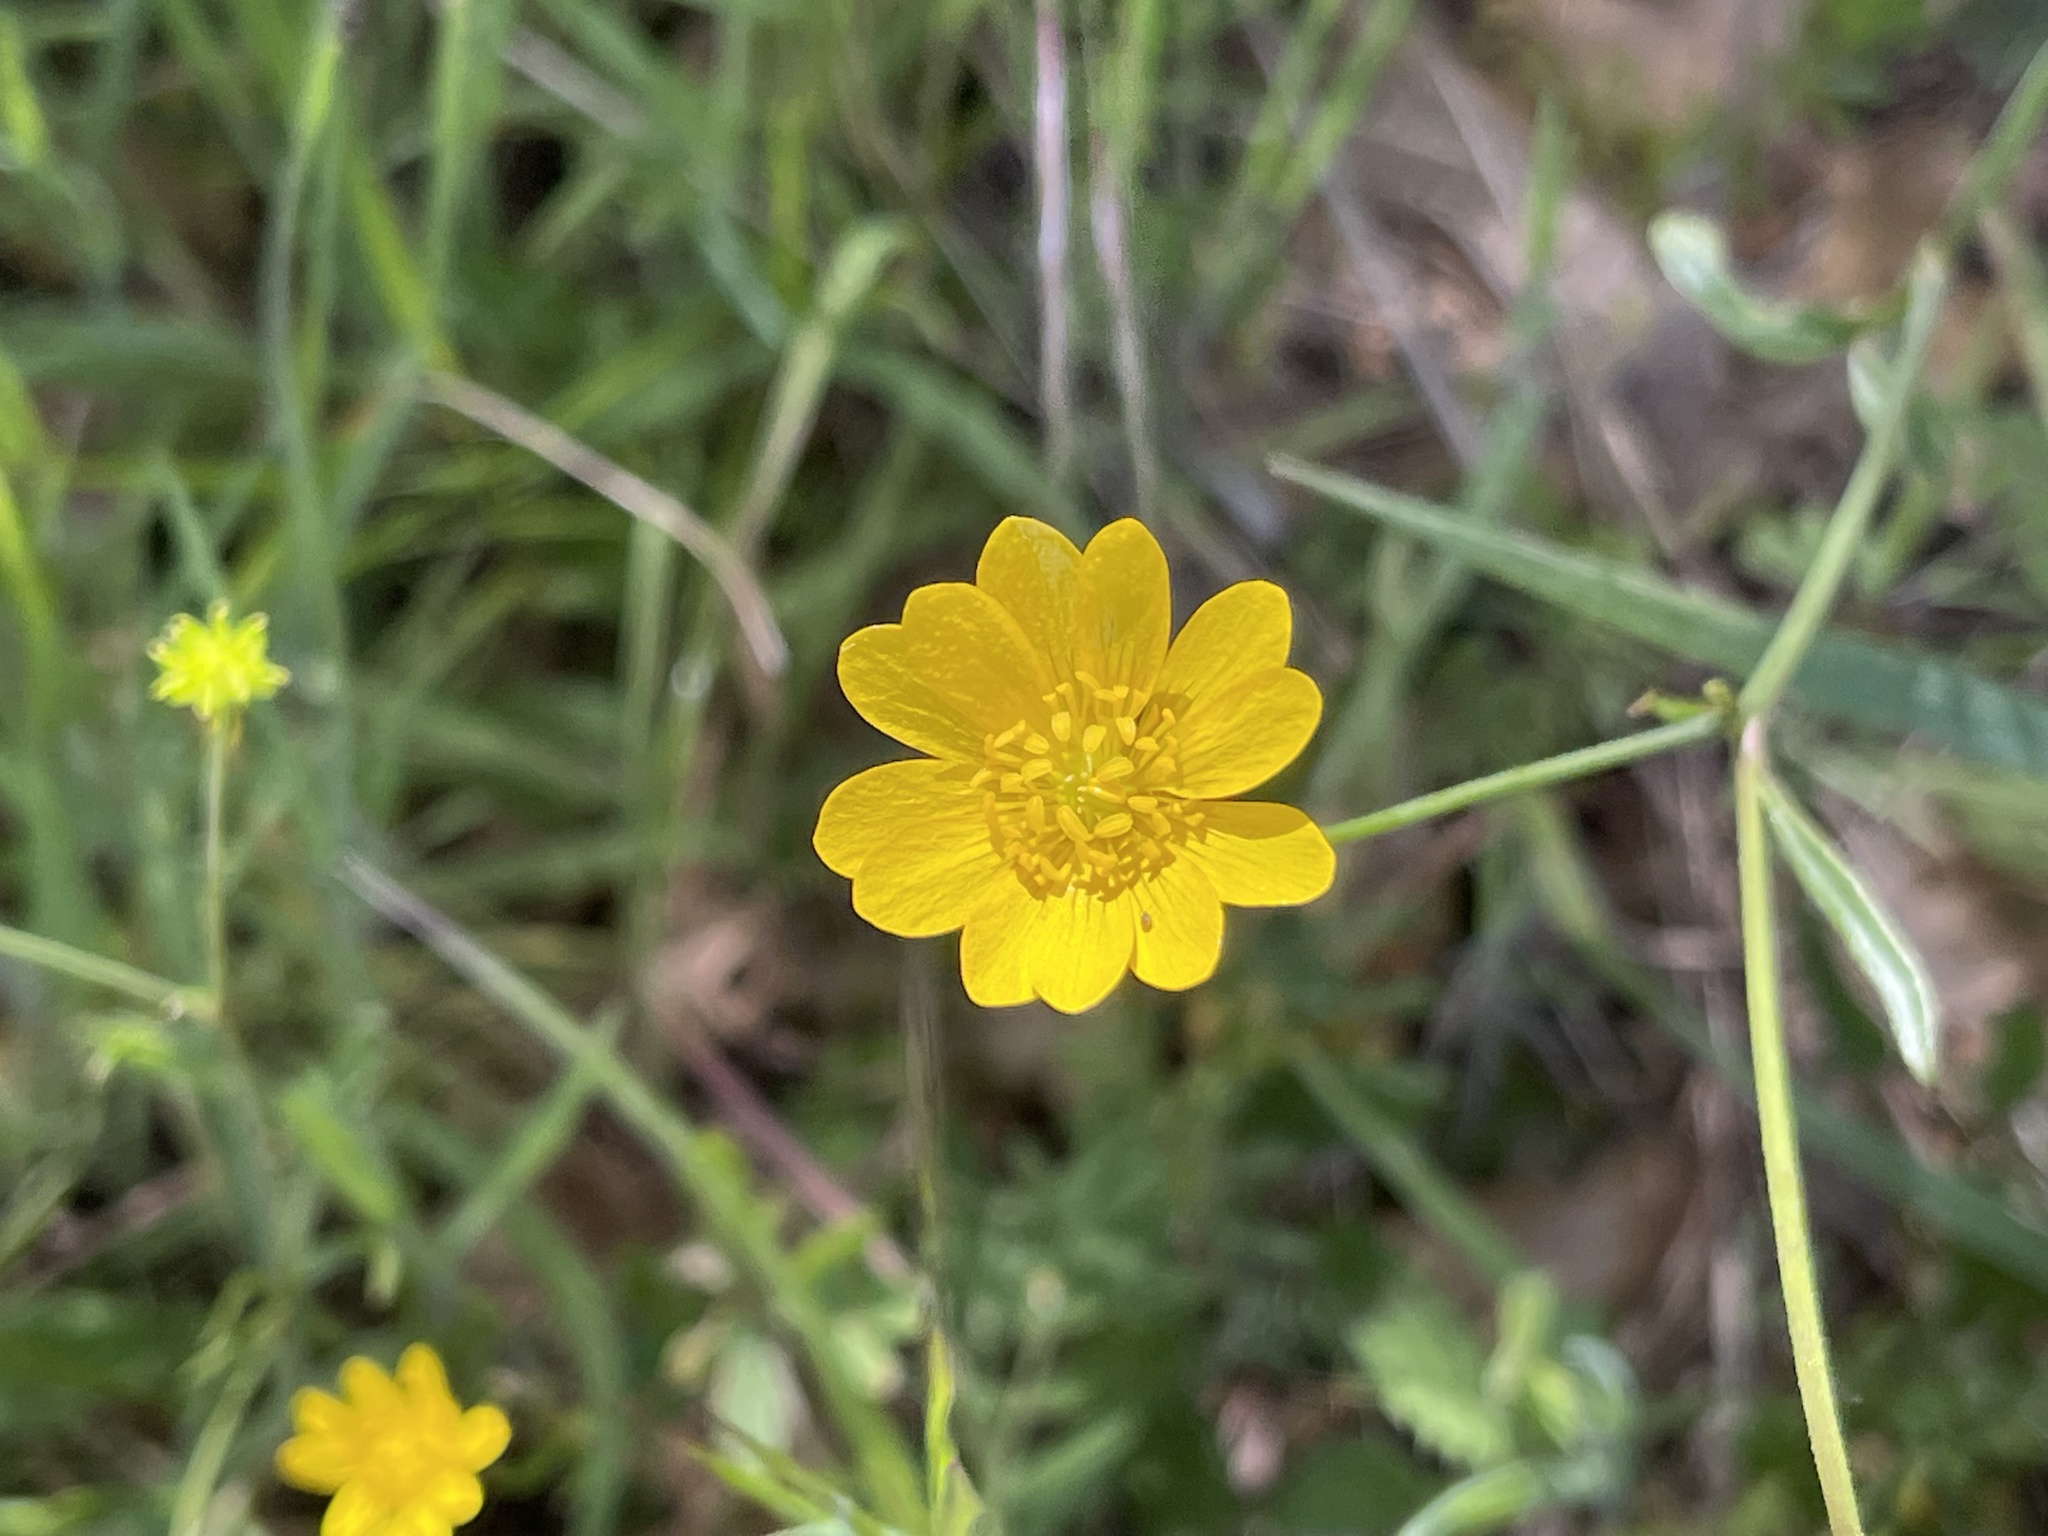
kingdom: Plantae
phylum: Tracheophyta
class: Magnoliopsida
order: Ranunculales
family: Ranunculaceae
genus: Ranunculus
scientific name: Ranunculus californicus
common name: California buttercup
